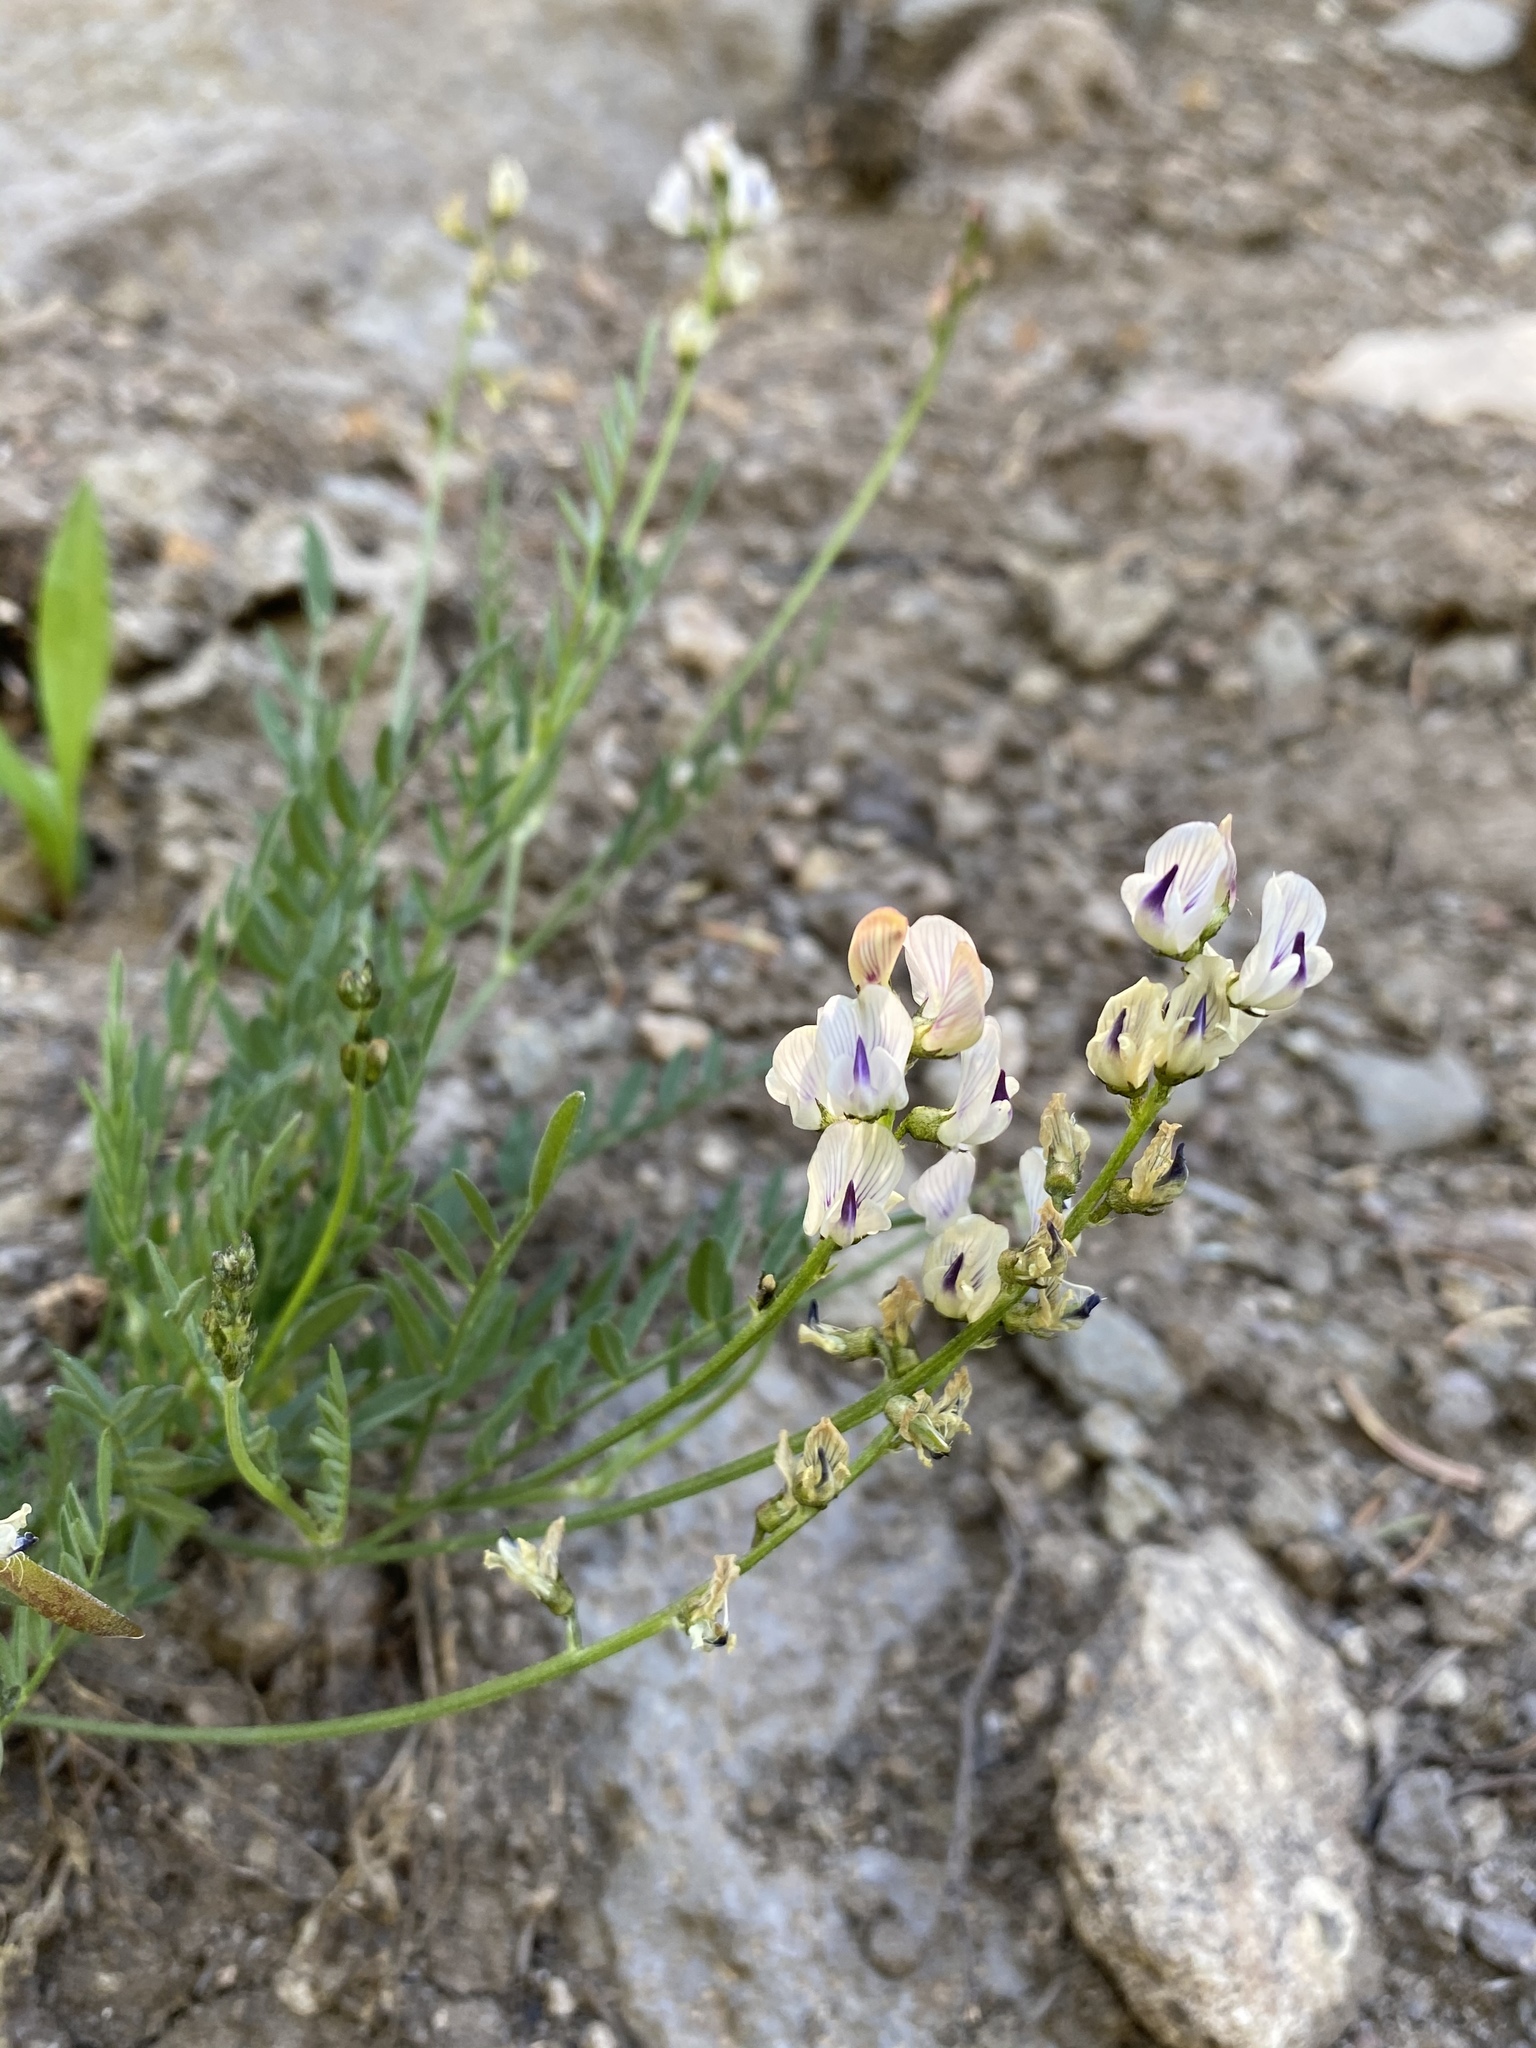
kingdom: Plantae
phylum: Tracheophyta
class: Magnoliopsida
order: Fabales
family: Fabaceae
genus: Astragalus
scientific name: Astragalus miser
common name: Timber milkvetch
